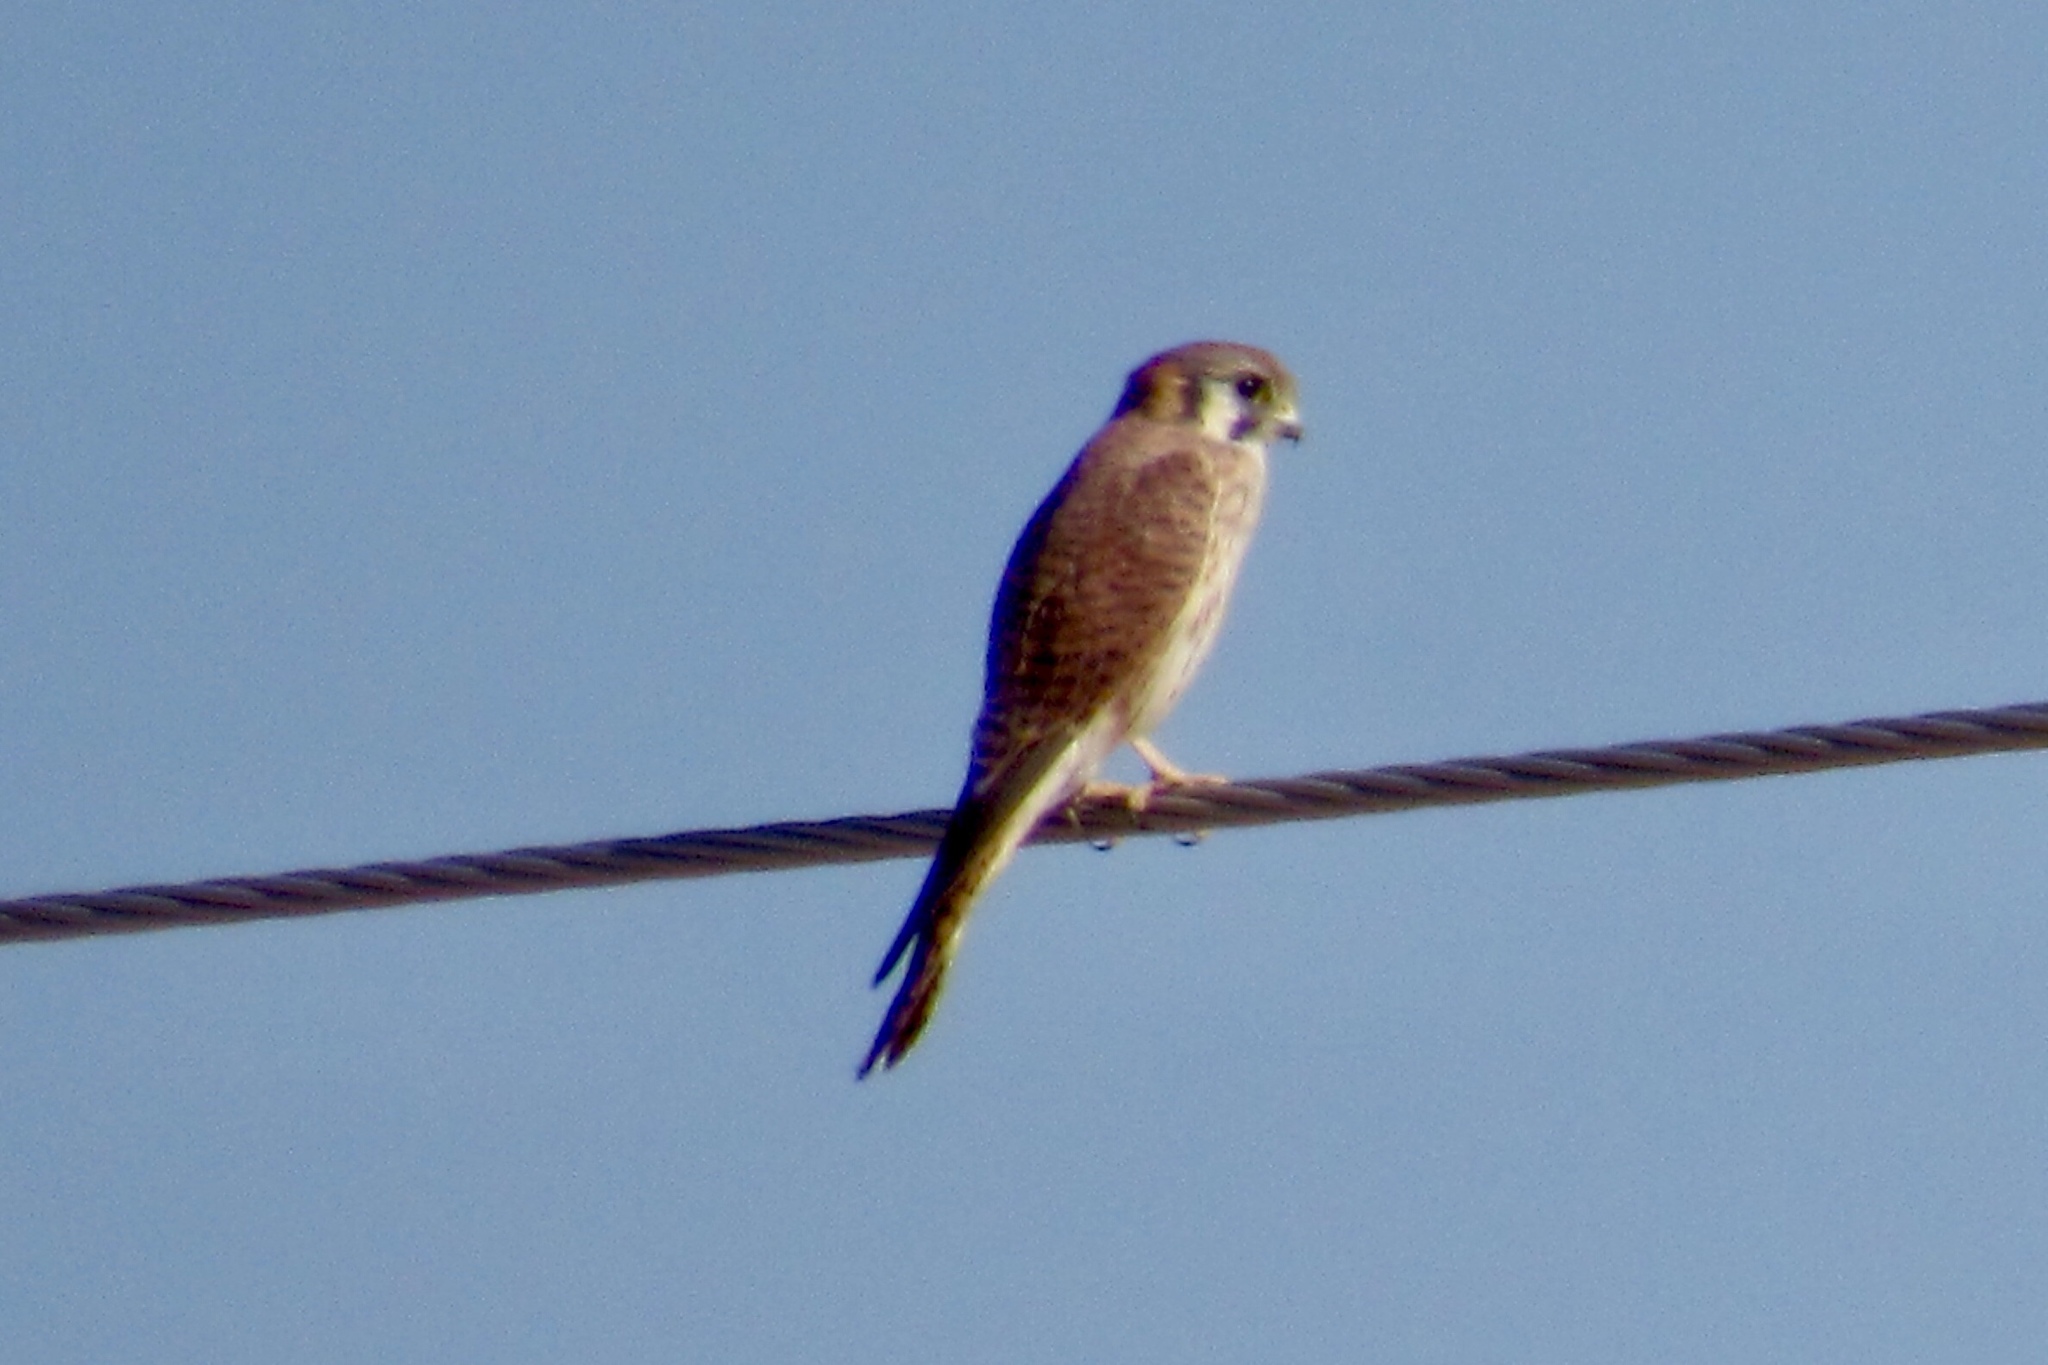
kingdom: Animalia
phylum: Chordata
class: Aves
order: Falconiformes
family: Falconidae
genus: Falco
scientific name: Falco sparverius
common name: American kestrel
